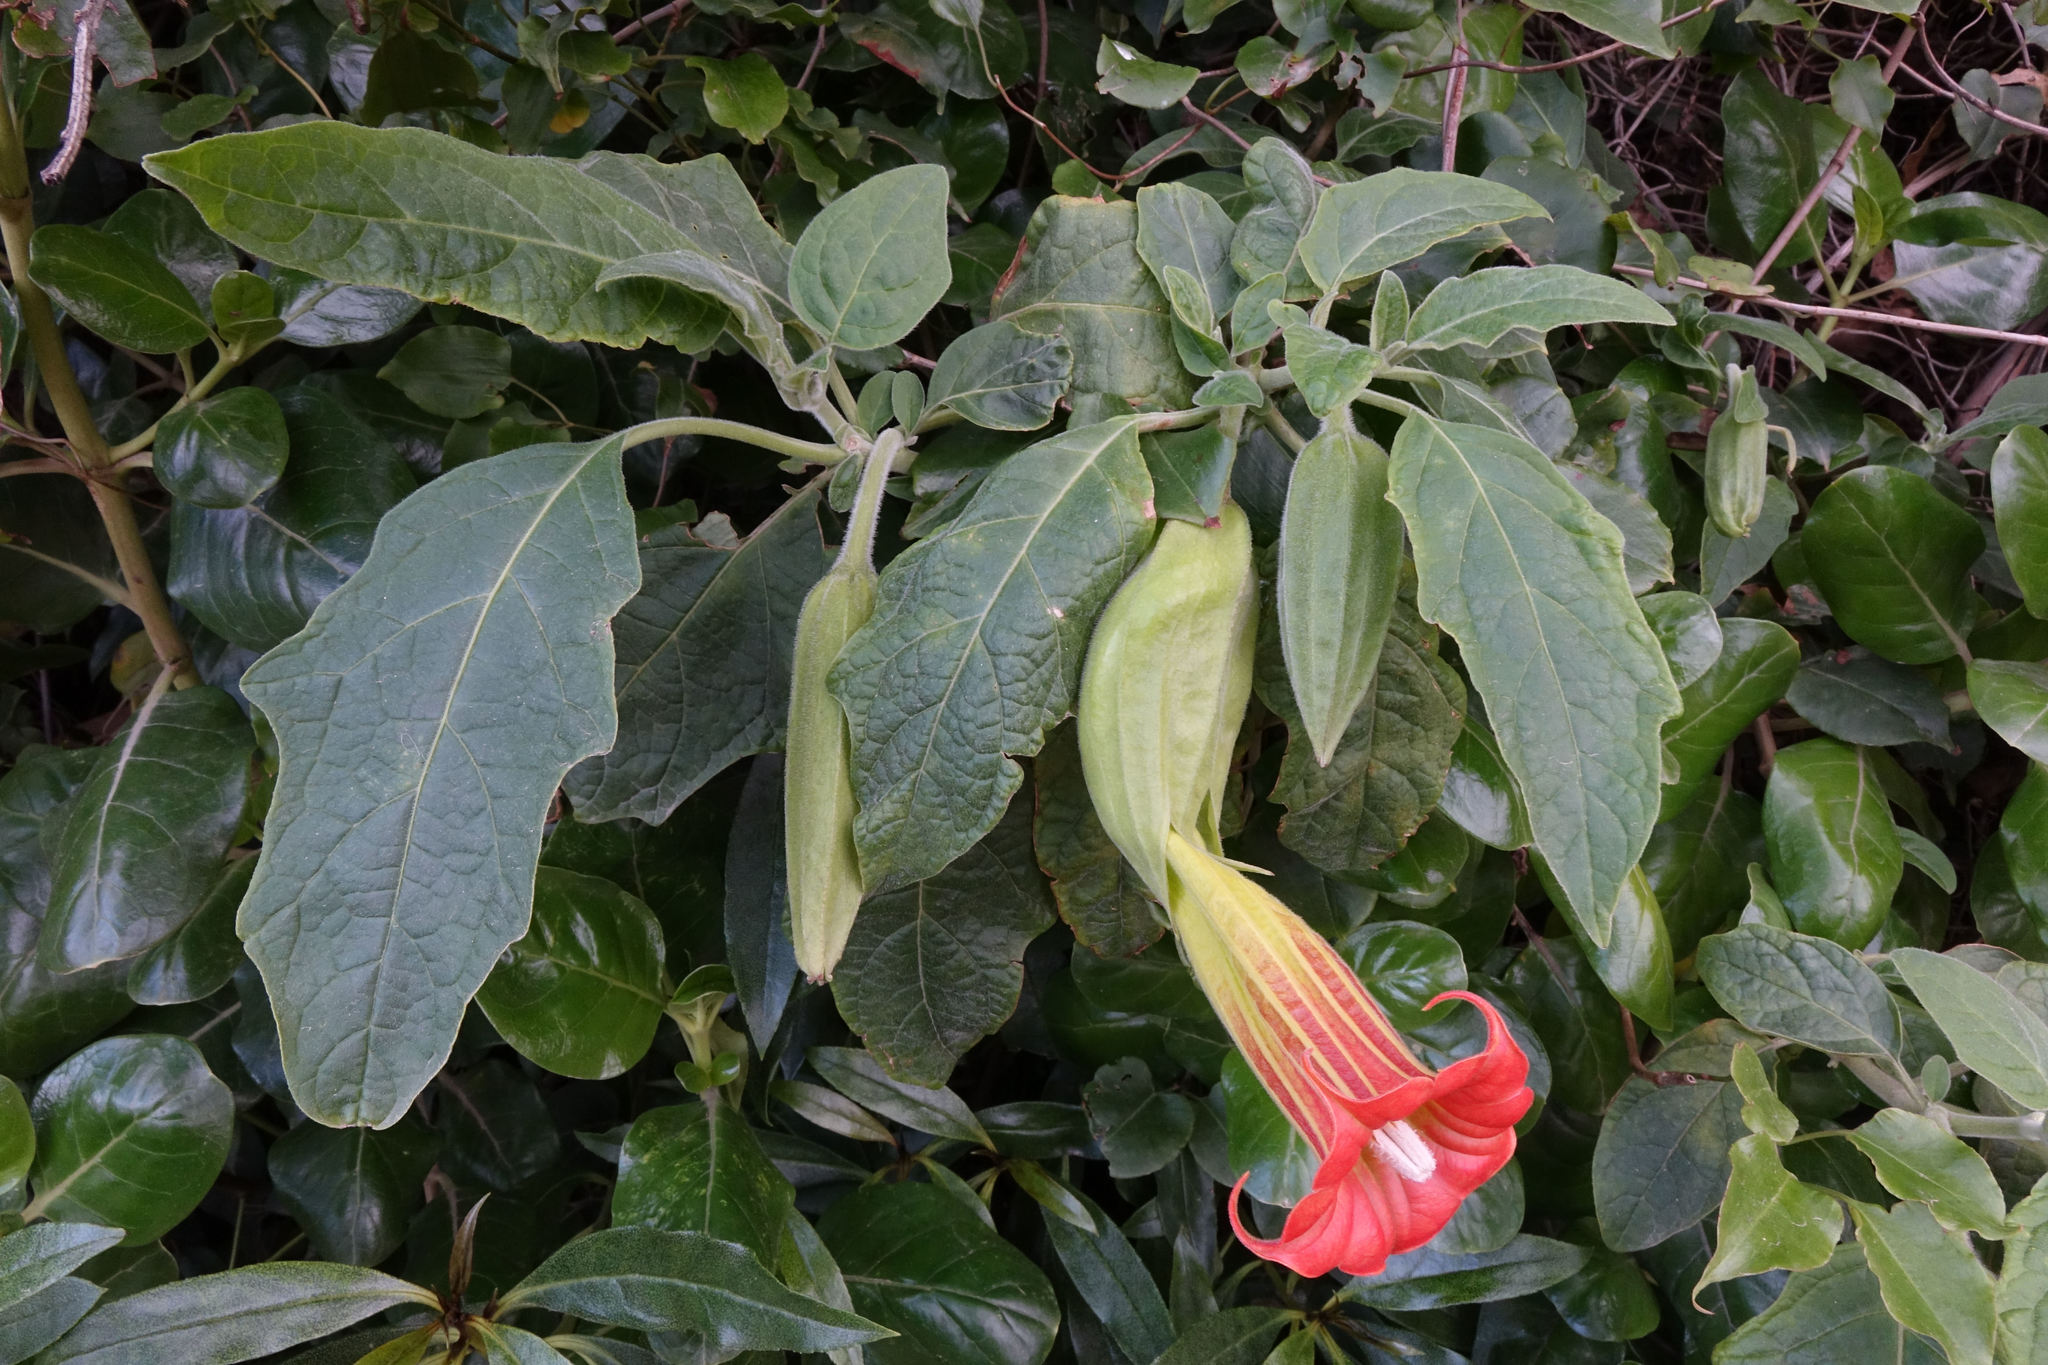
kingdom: Plantae
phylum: Tracheophyta
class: Magnoliopsida
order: Solanales
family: Solanaceae
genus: Brugmansia
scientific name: Brugmansia sanguinea
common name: Red floripontio
